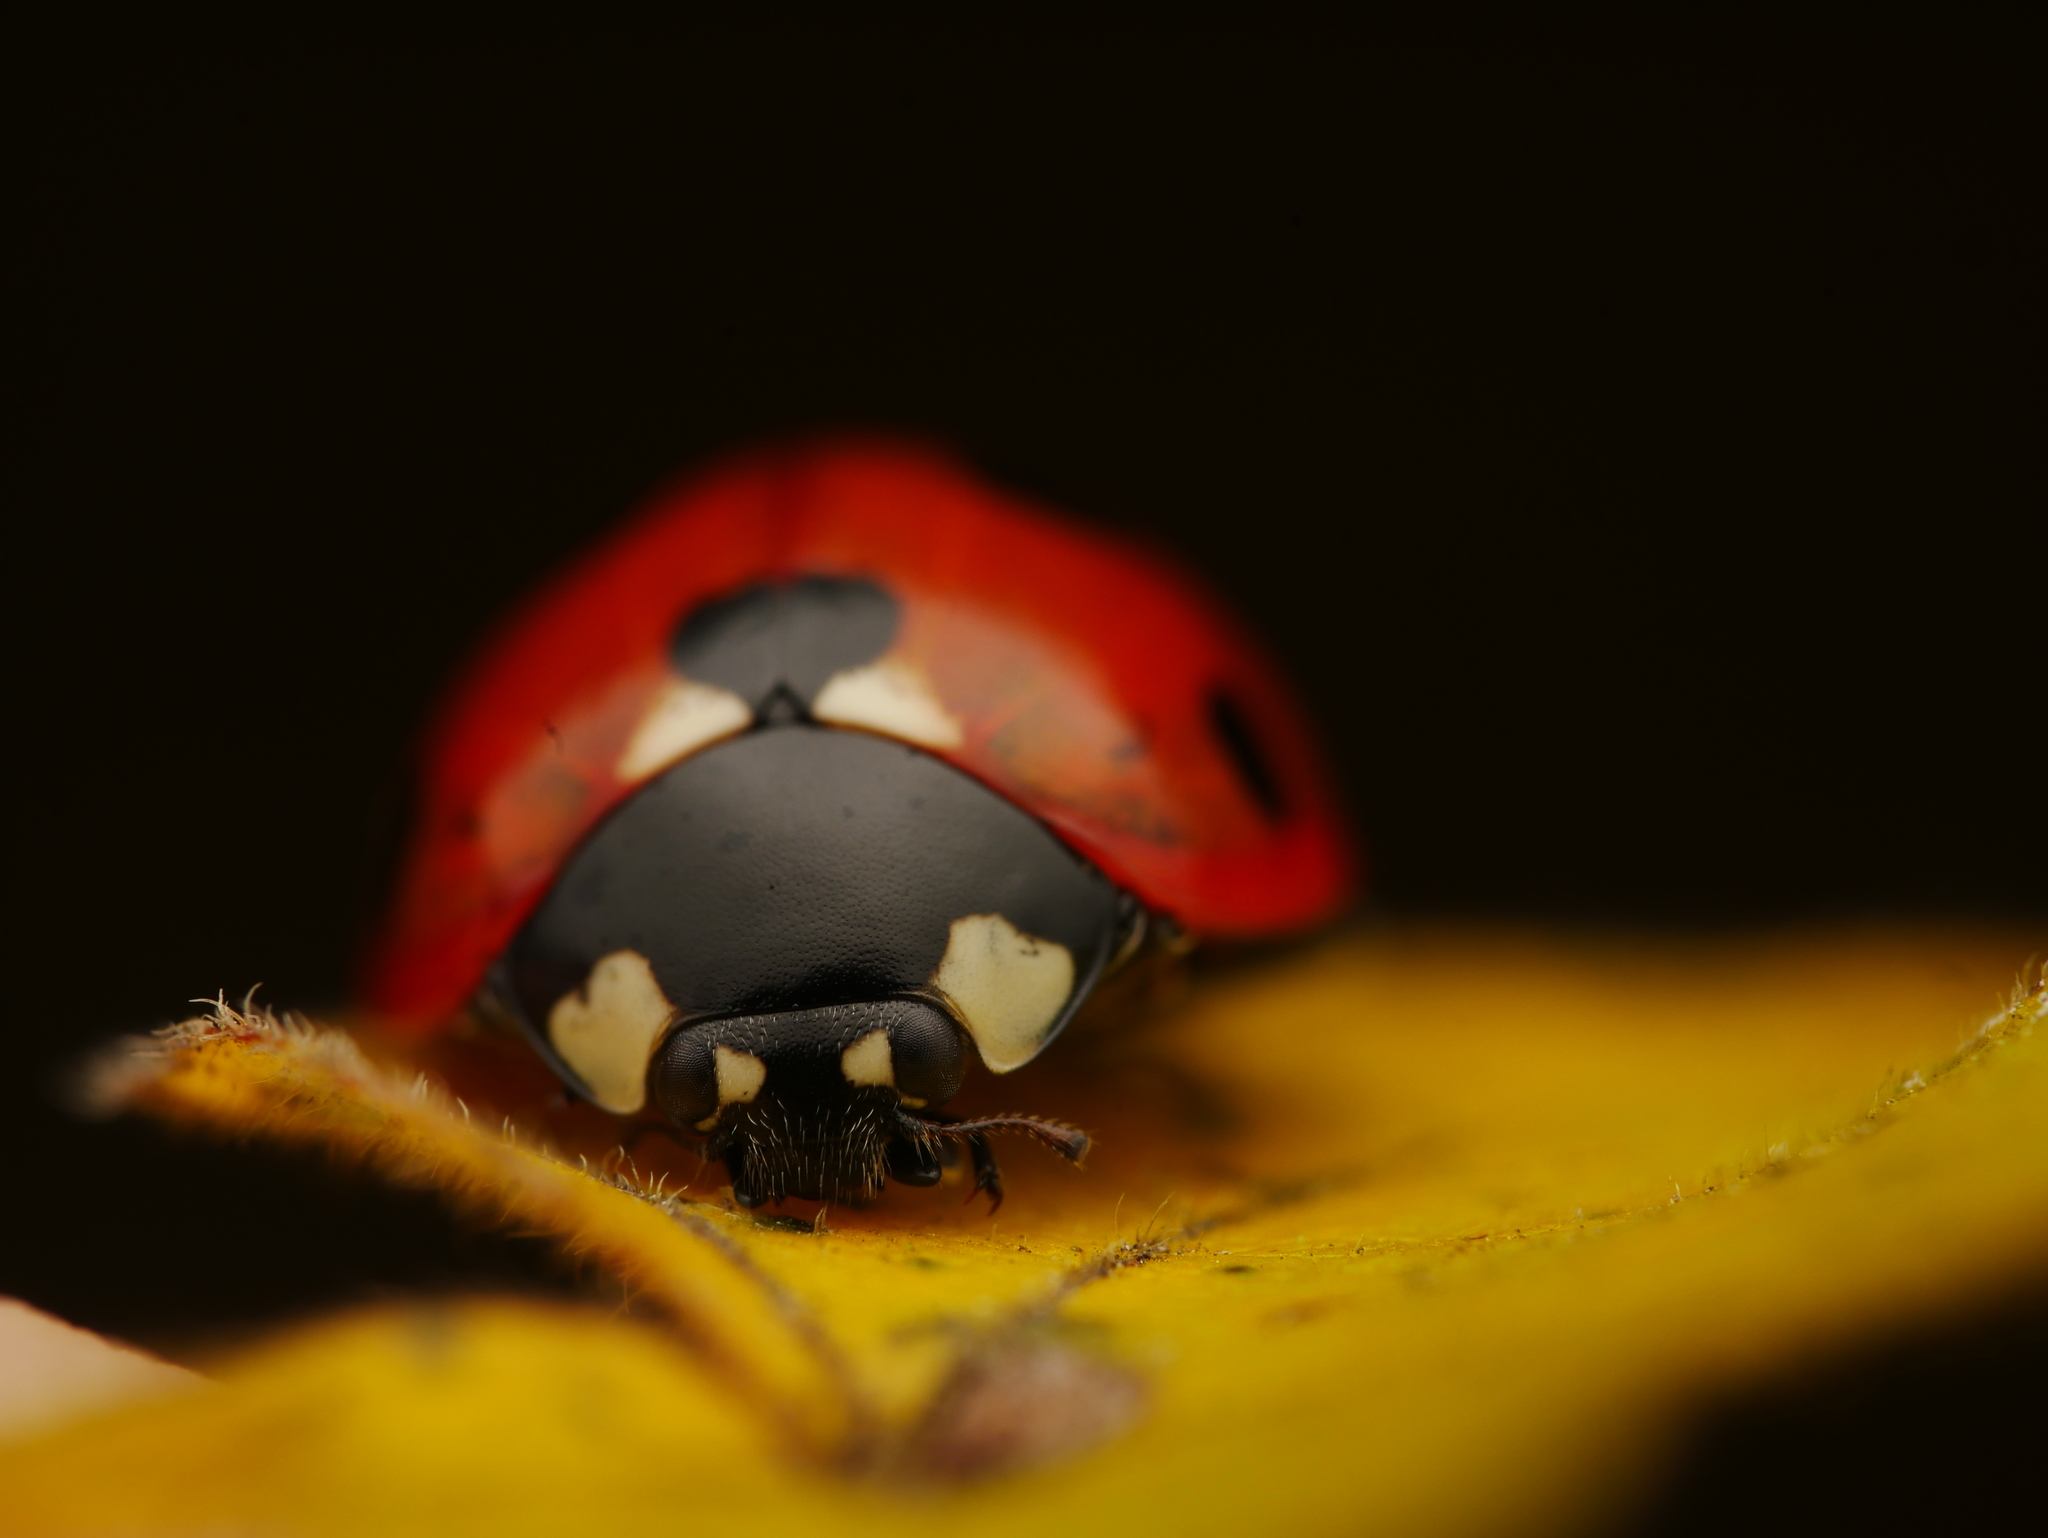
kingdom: Animalia
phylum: Arthropoda
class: Insecta
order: Coleoptera
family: Coccinellidae
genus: Coccinella
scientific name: Coccinella septempunctata
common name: Sevenspotted lady beetle
